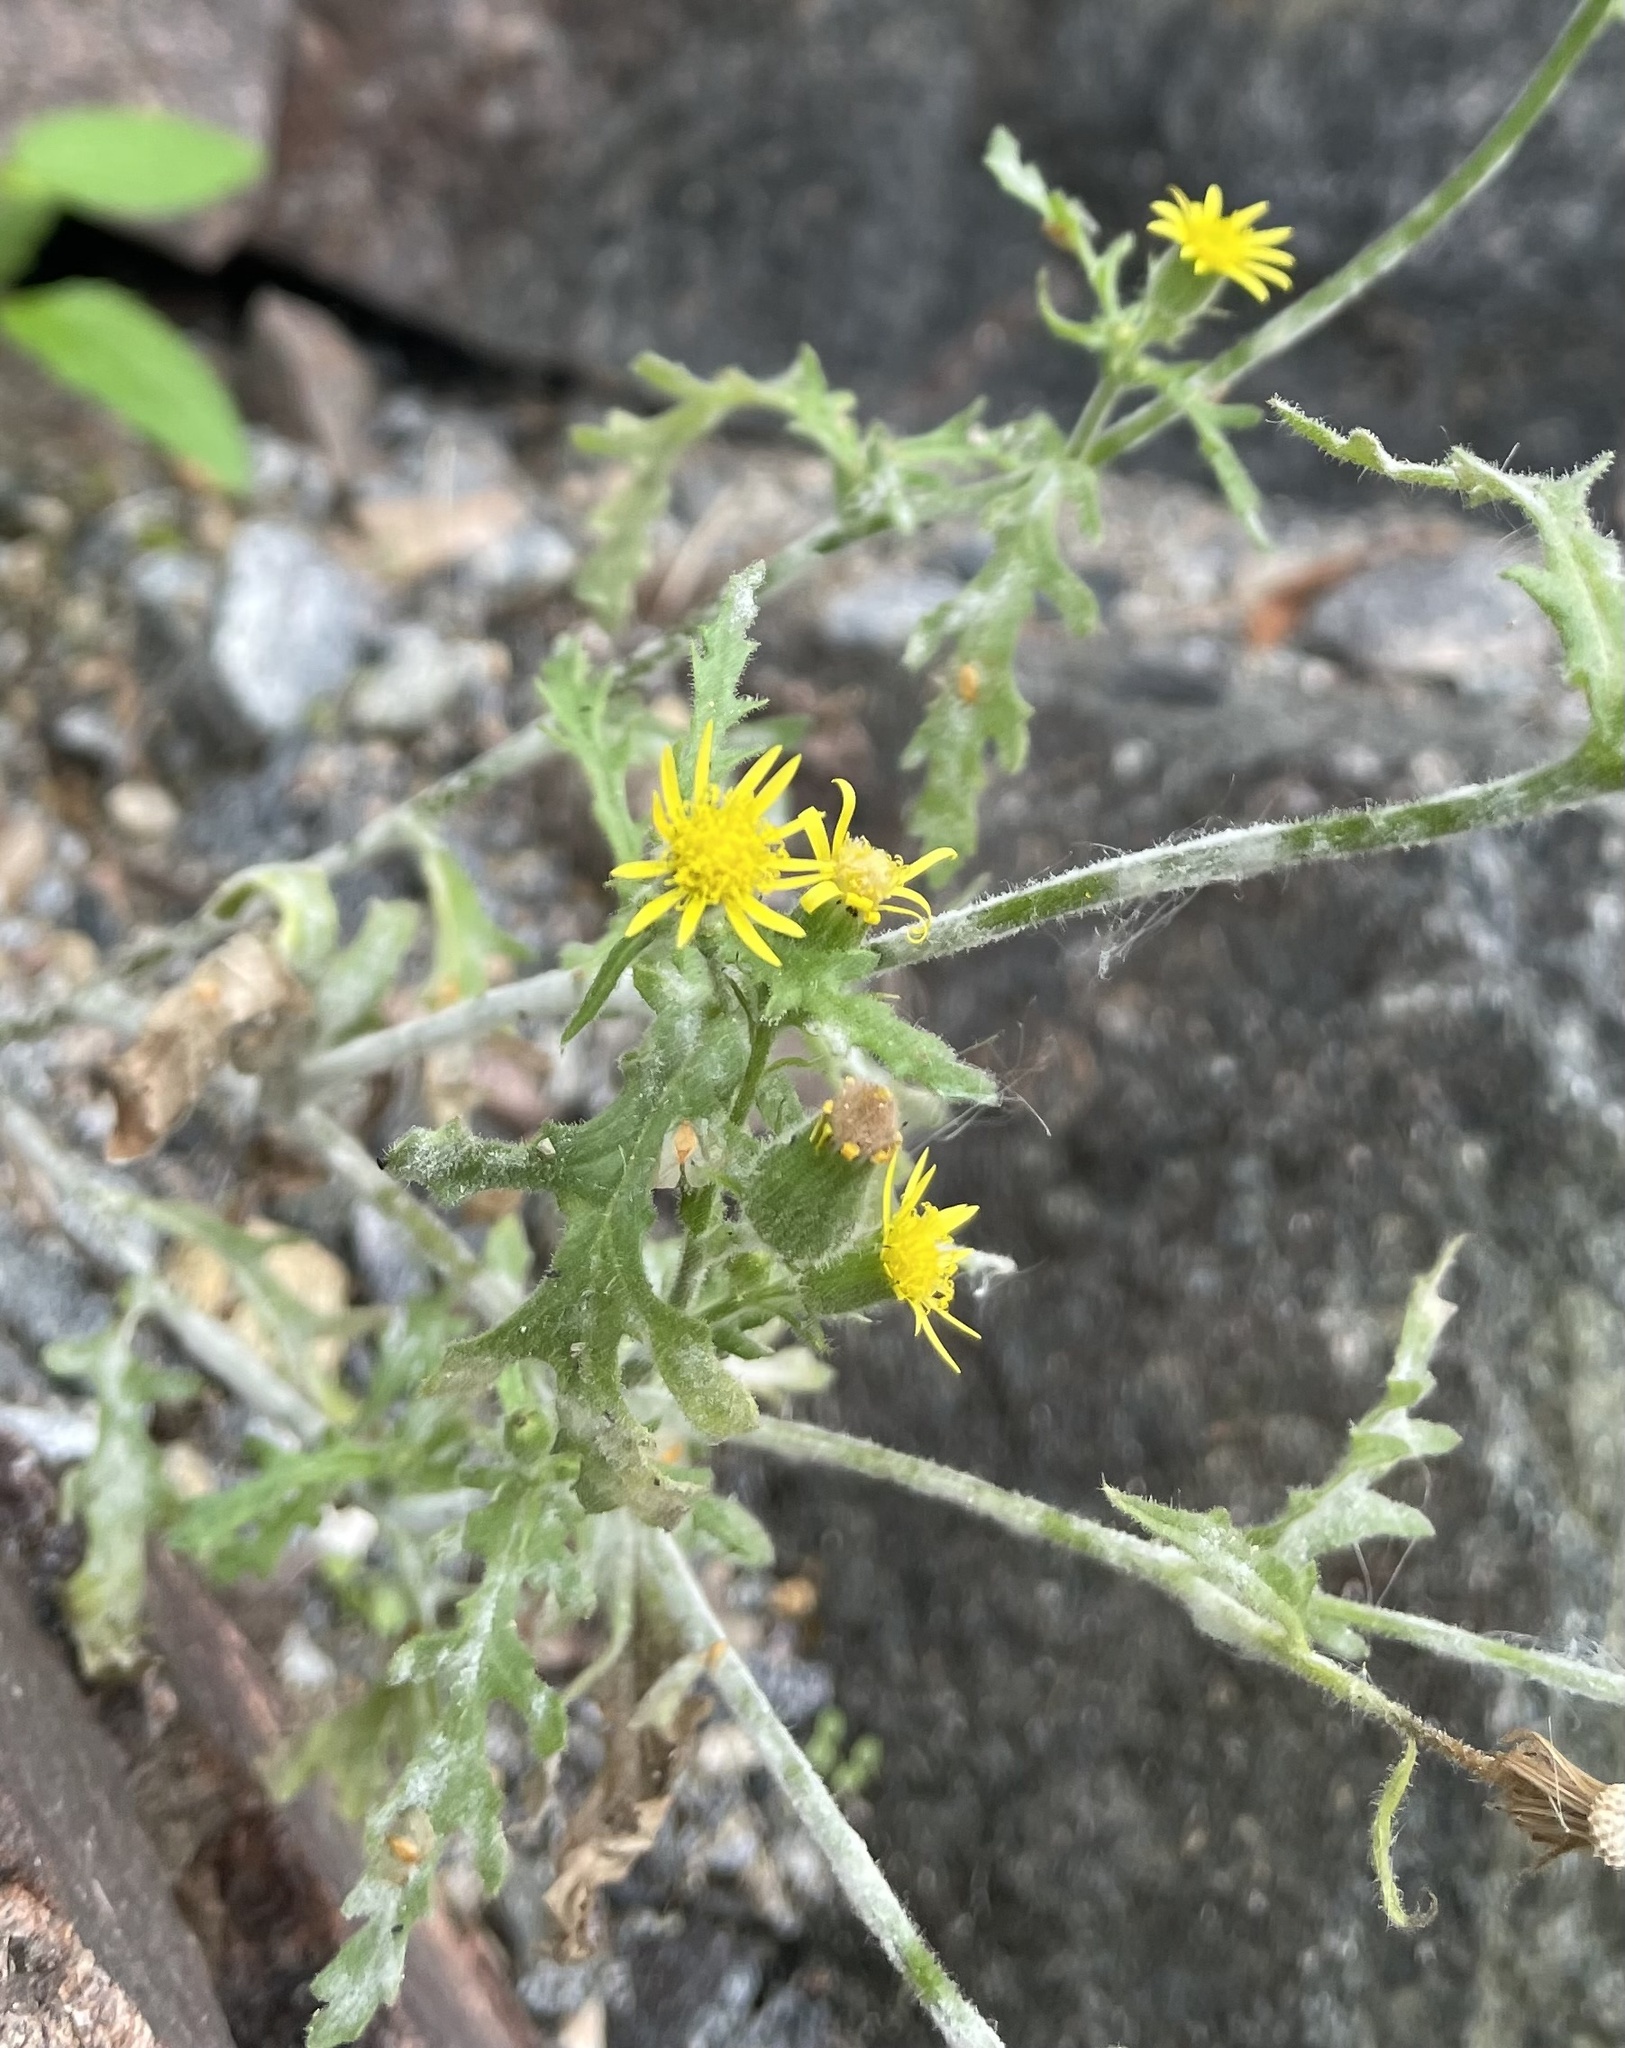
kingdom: Plantae
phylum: Tracheophyta
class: Magnoliopsida
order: Asterales
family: Asteraceae
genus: Senecio
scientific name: Senecio viscosus
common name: Sticky groundsel
